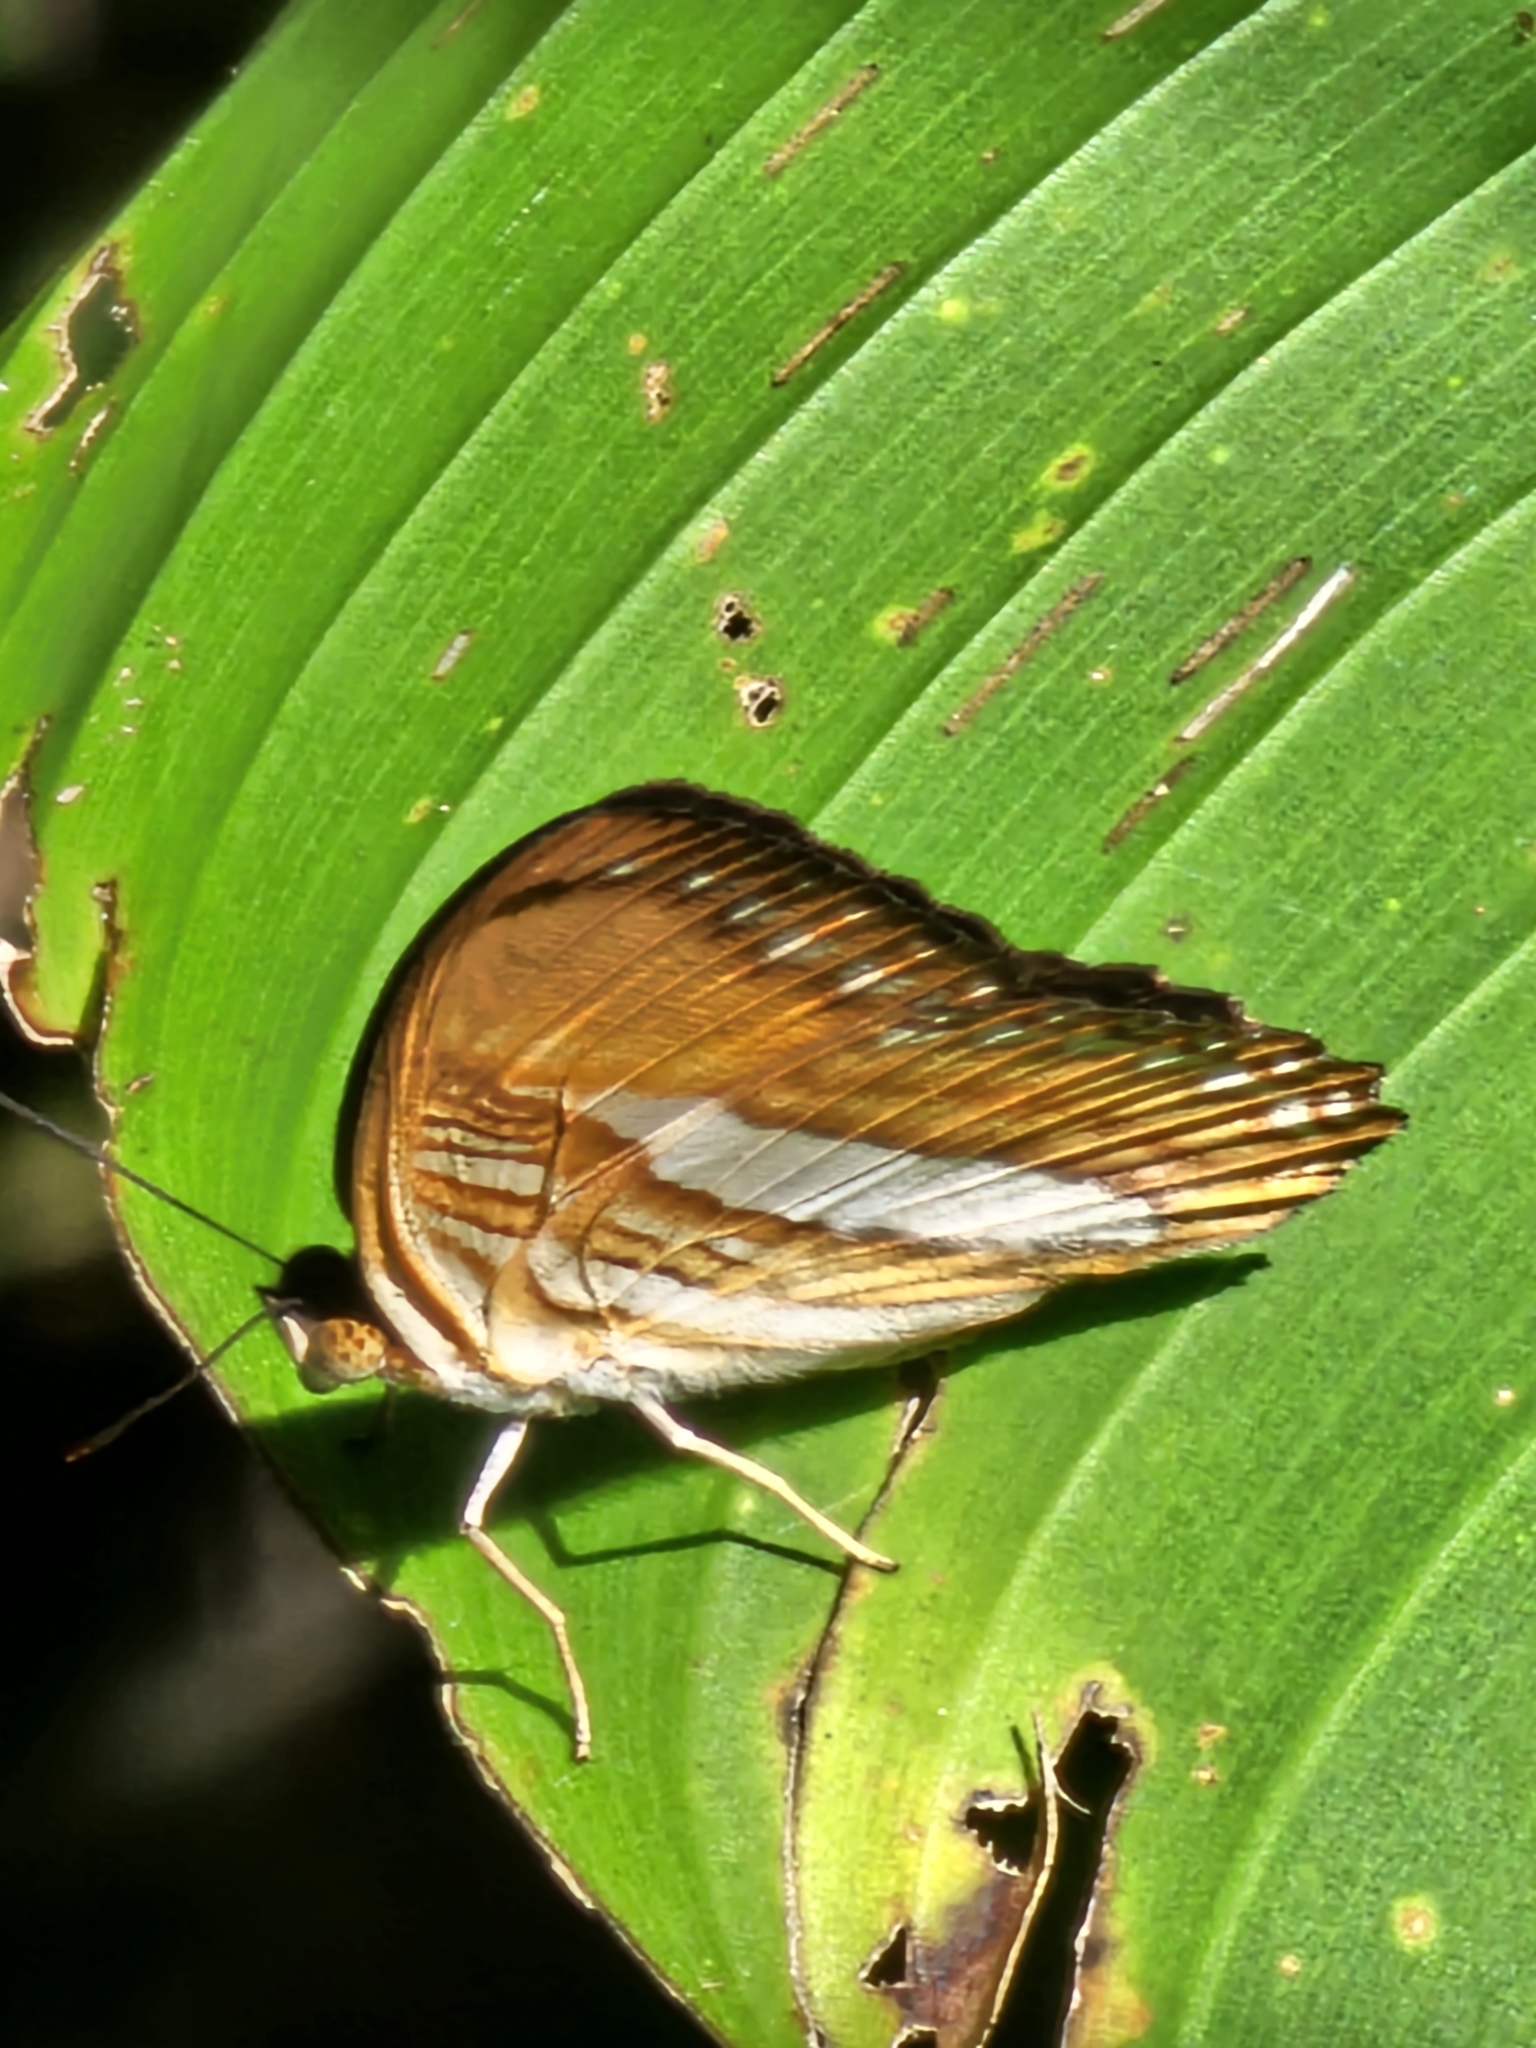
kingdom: Animalia
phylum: Arthropoda
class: Insecta
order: Lepidoptera
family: Nymphalidae
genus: Limenitis
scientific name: Limenitis cytherea
